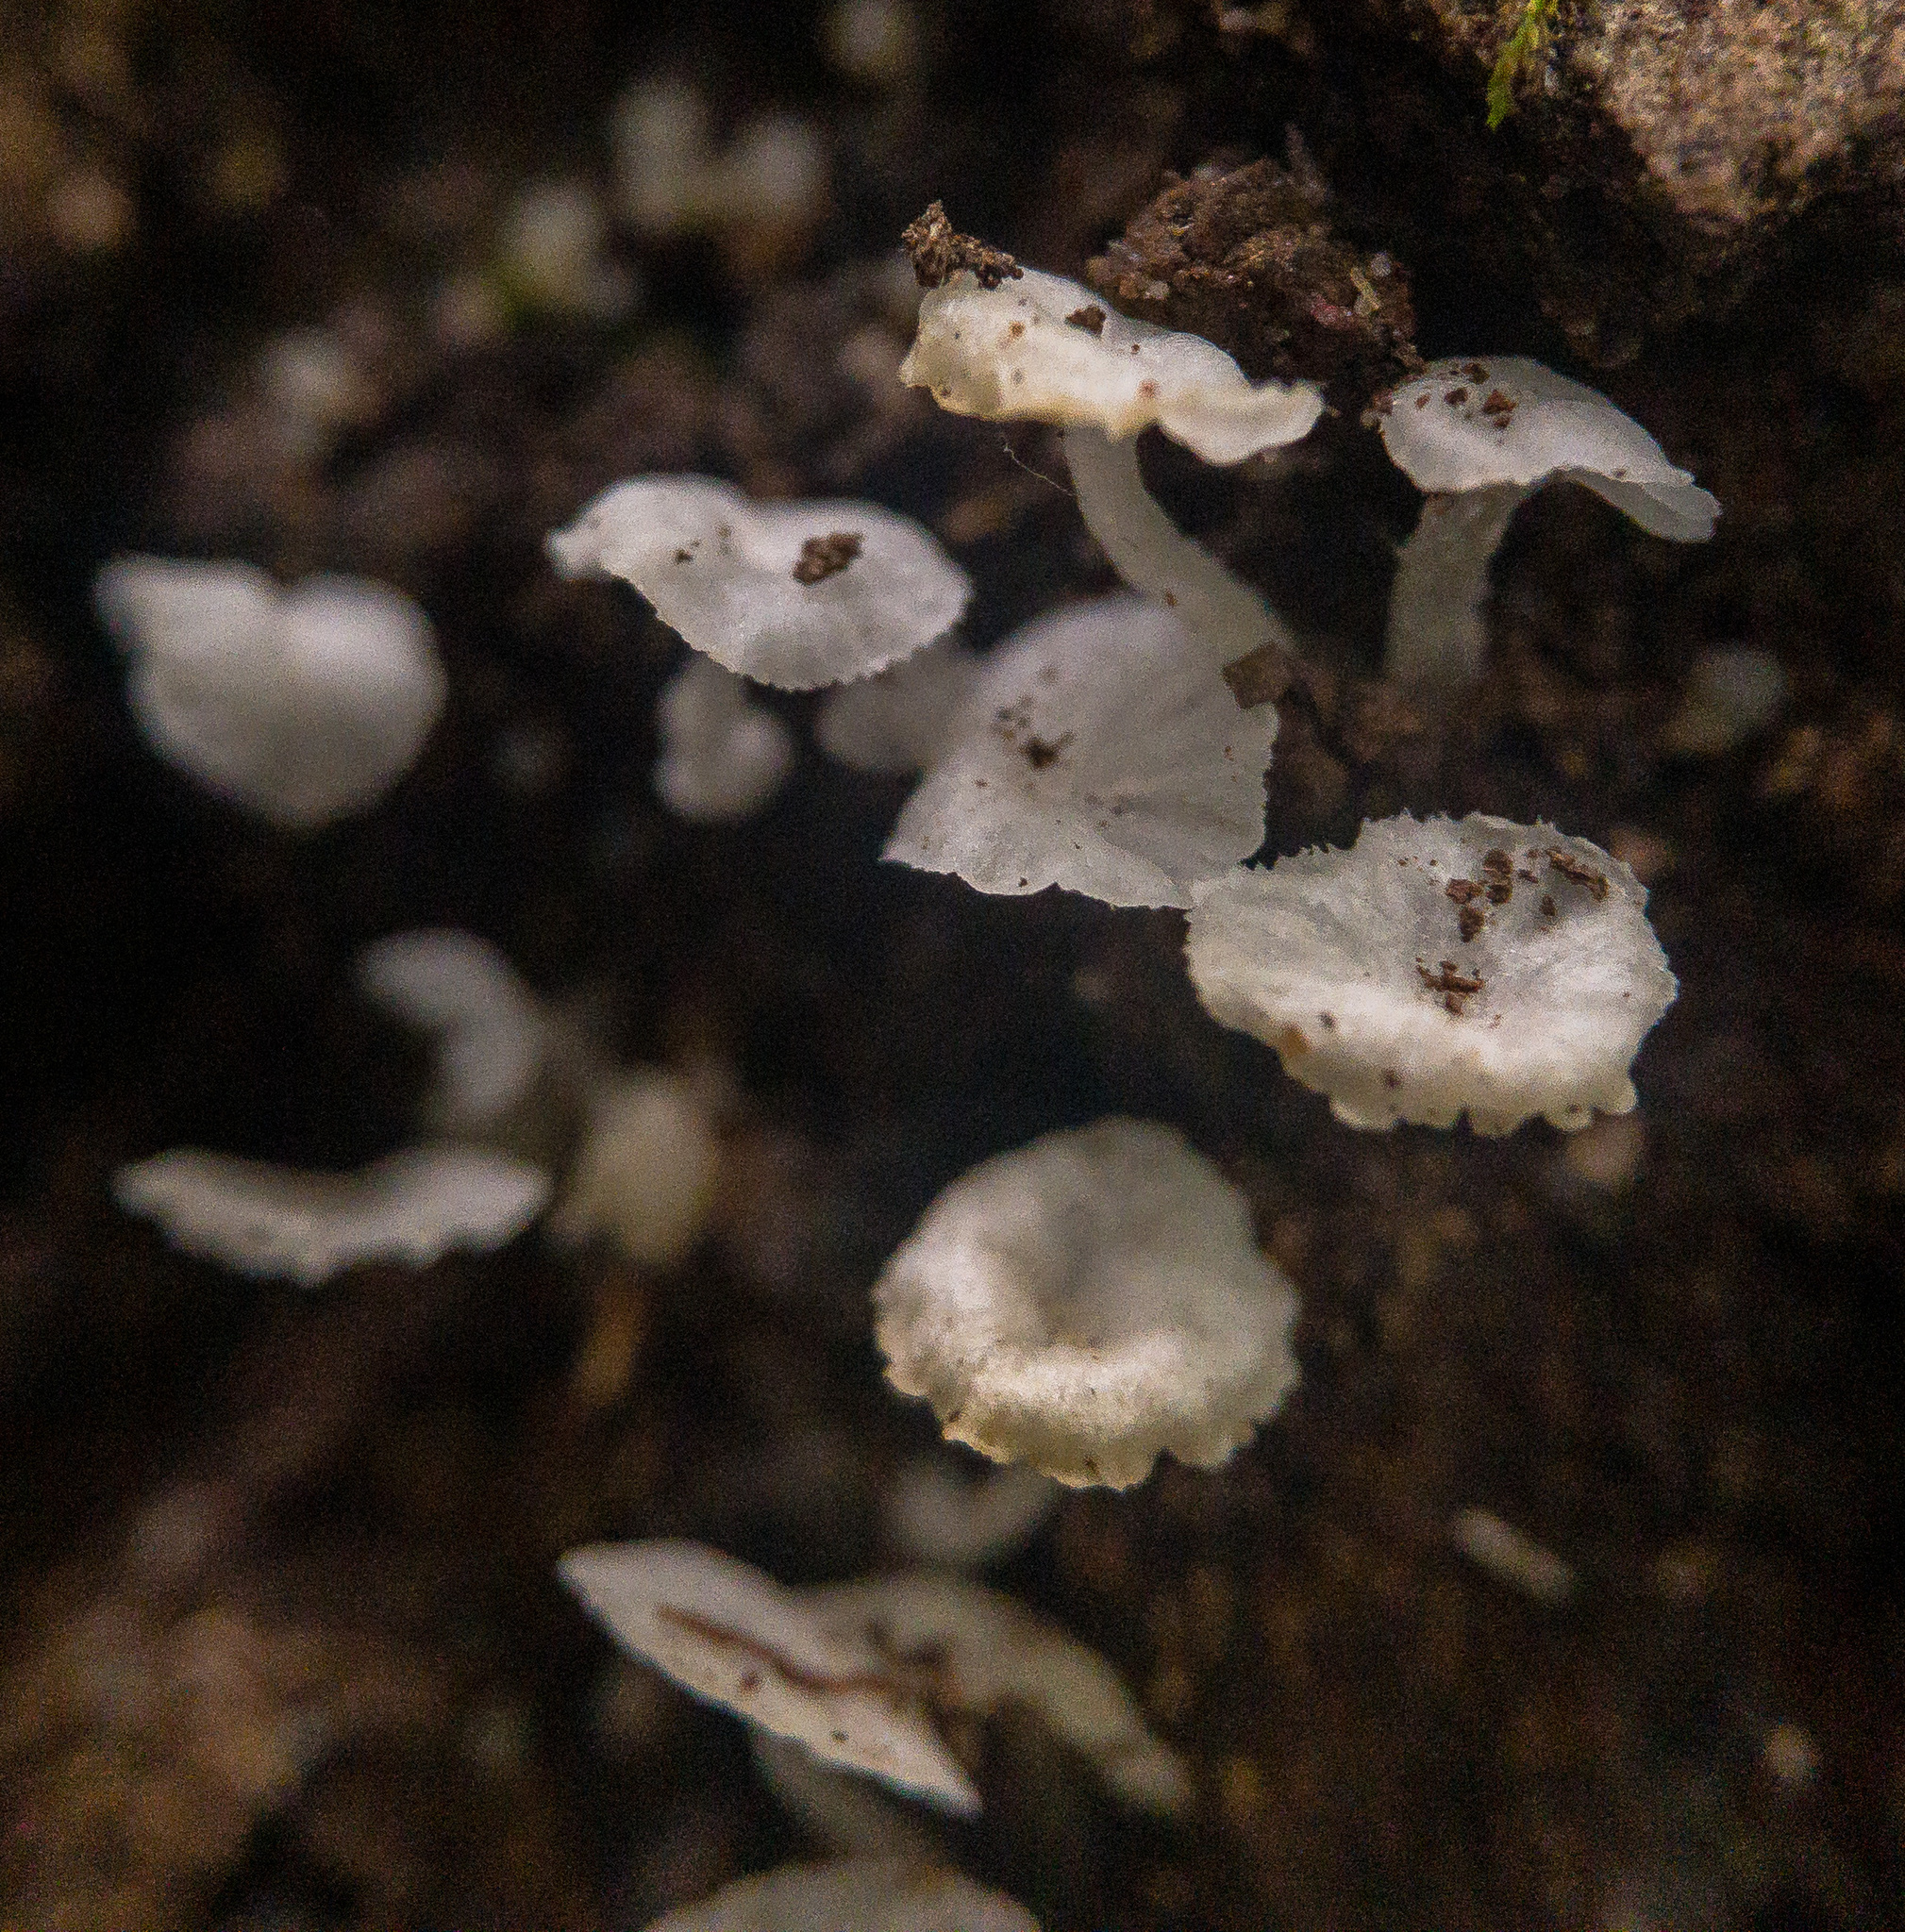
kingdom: Fungi
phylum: Basidiomycota
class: Agaricomycetes
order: Agaricales
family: Tricholomataceae
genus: Delicatula
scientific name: Delicatula integrella
